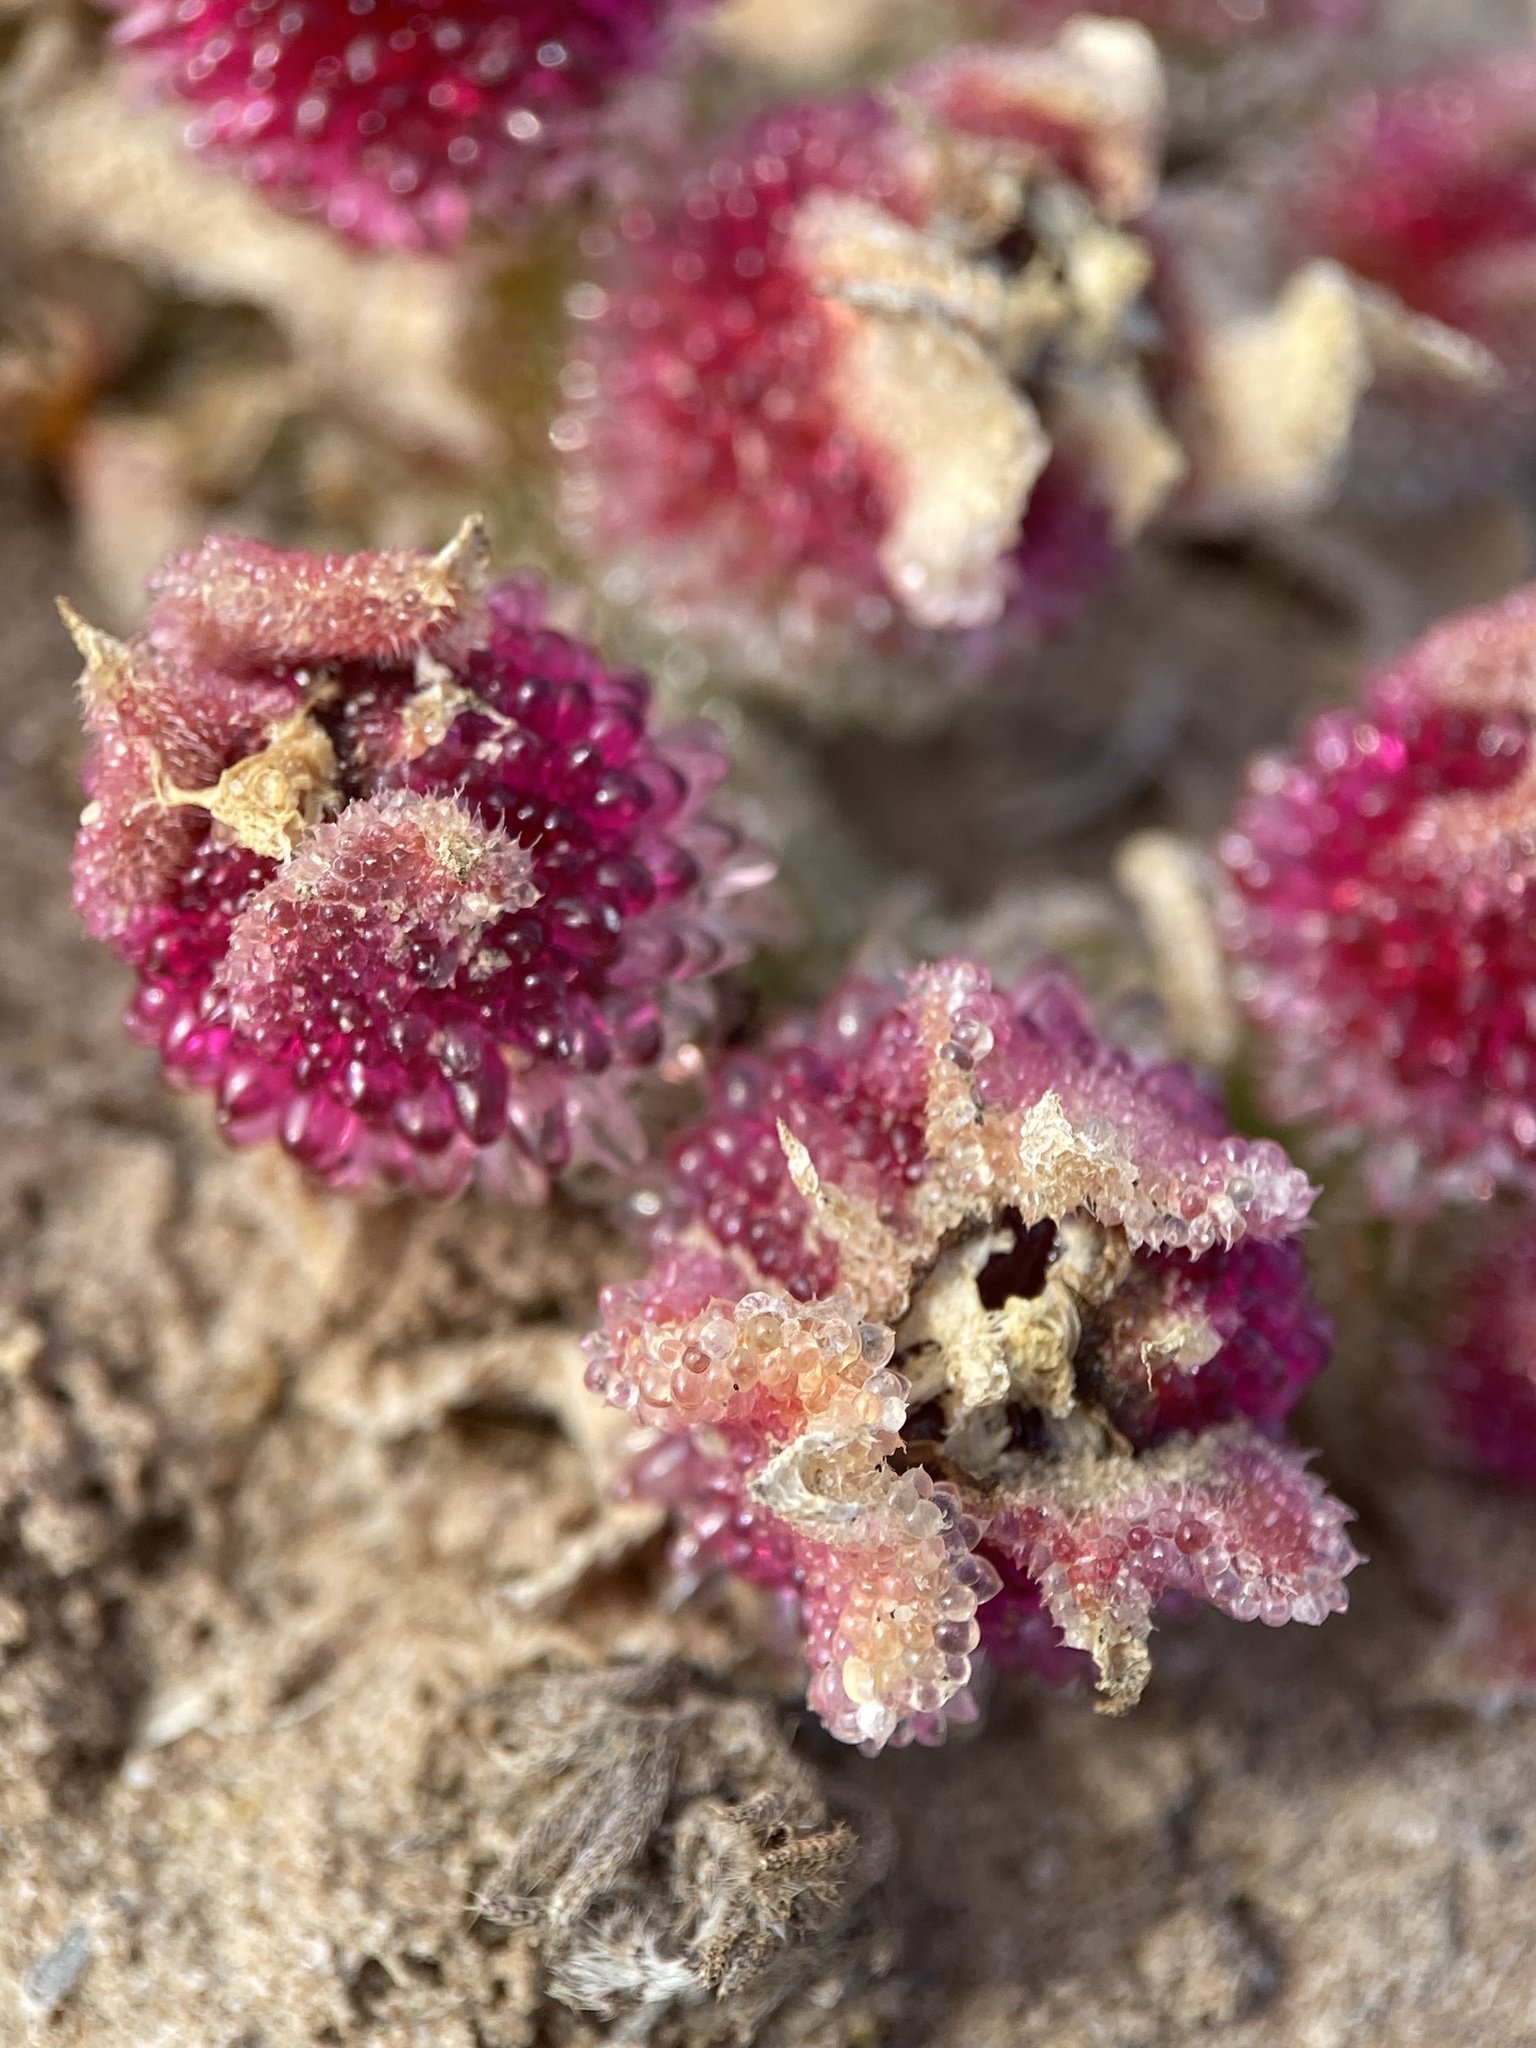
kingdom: Plantae
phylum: Tracheophyta
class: Magnoliopsida
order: Caryophyllales
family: Aizoaceae
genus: Mesembryanthemum
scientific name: Mesembryanthemum crystallinum
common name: Common iceplant
